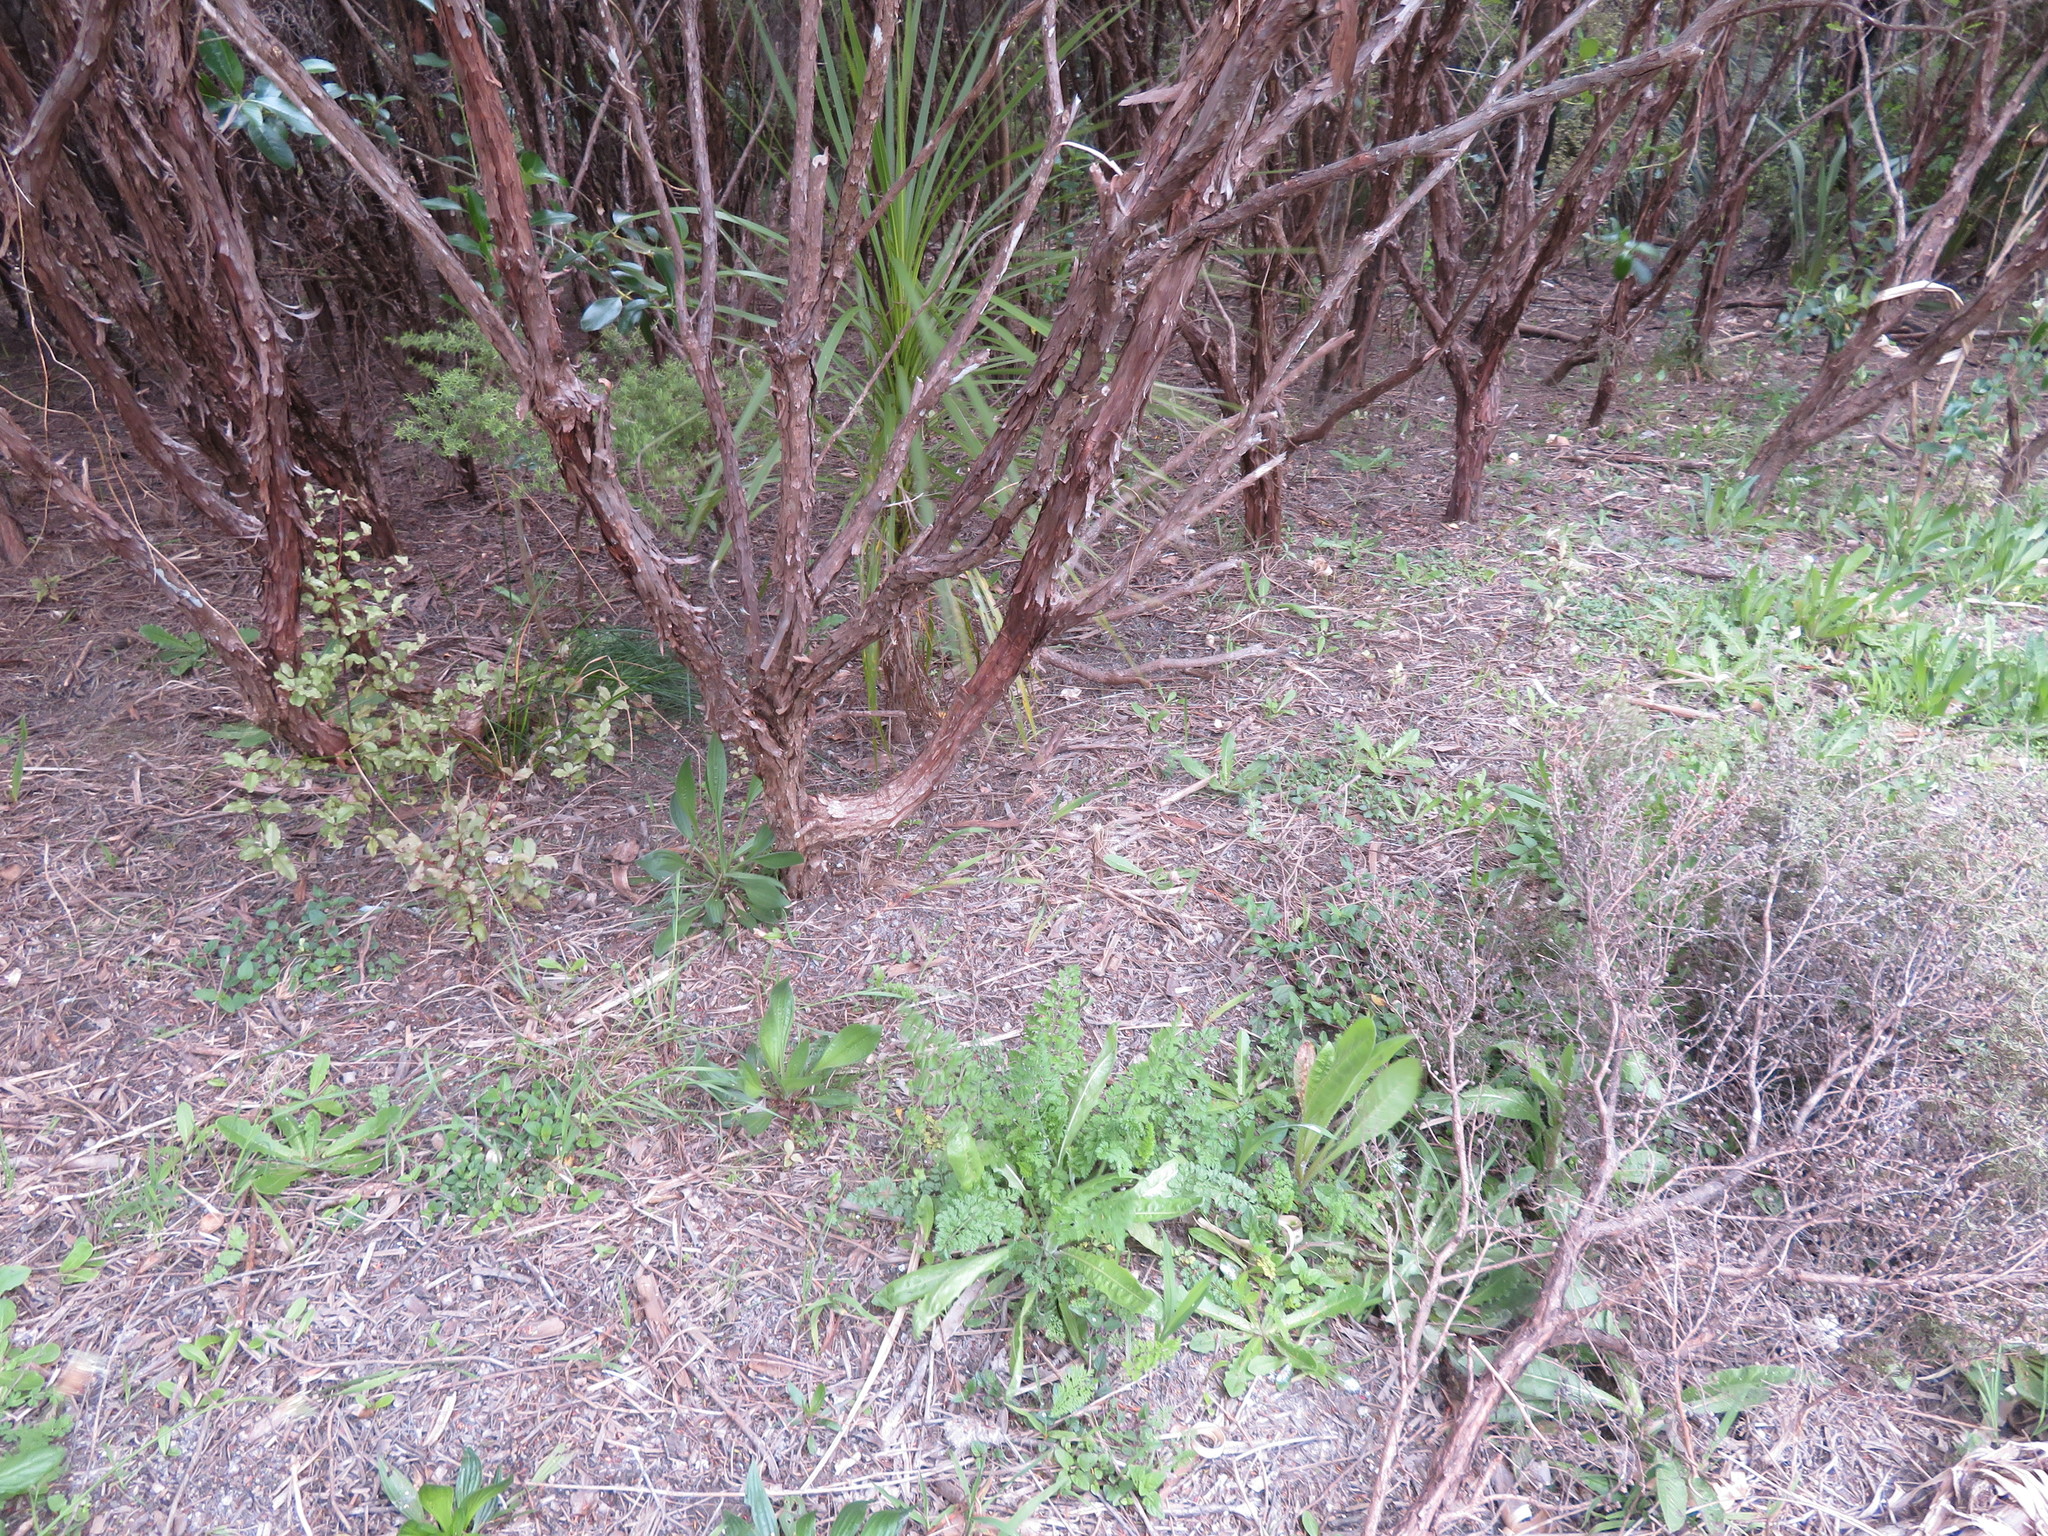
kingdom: Plantae
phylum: Tracheophyta
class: Liliopsida
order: Asparagales
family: Asparagaceae
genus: Cordyline
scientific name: Cordyline australis
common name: Cabbage-palm
